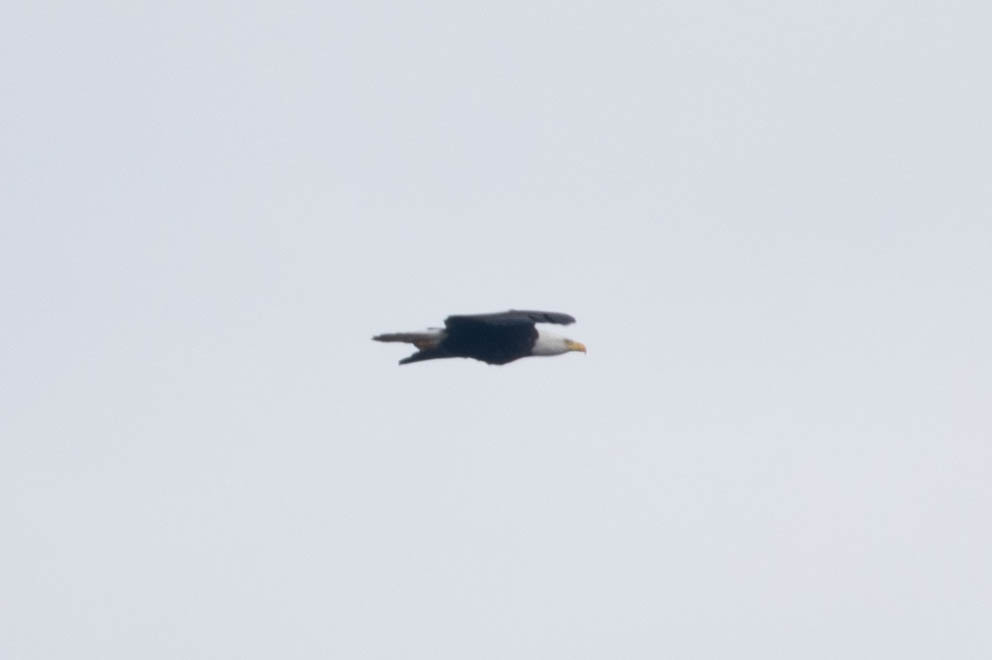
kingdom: Animalia
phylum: Chordata
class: Aves
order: Accipitriformes
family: Accipitridae
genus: Haliaeetus
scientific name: Haliaeetus leucocephalus
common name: Bald eagle
